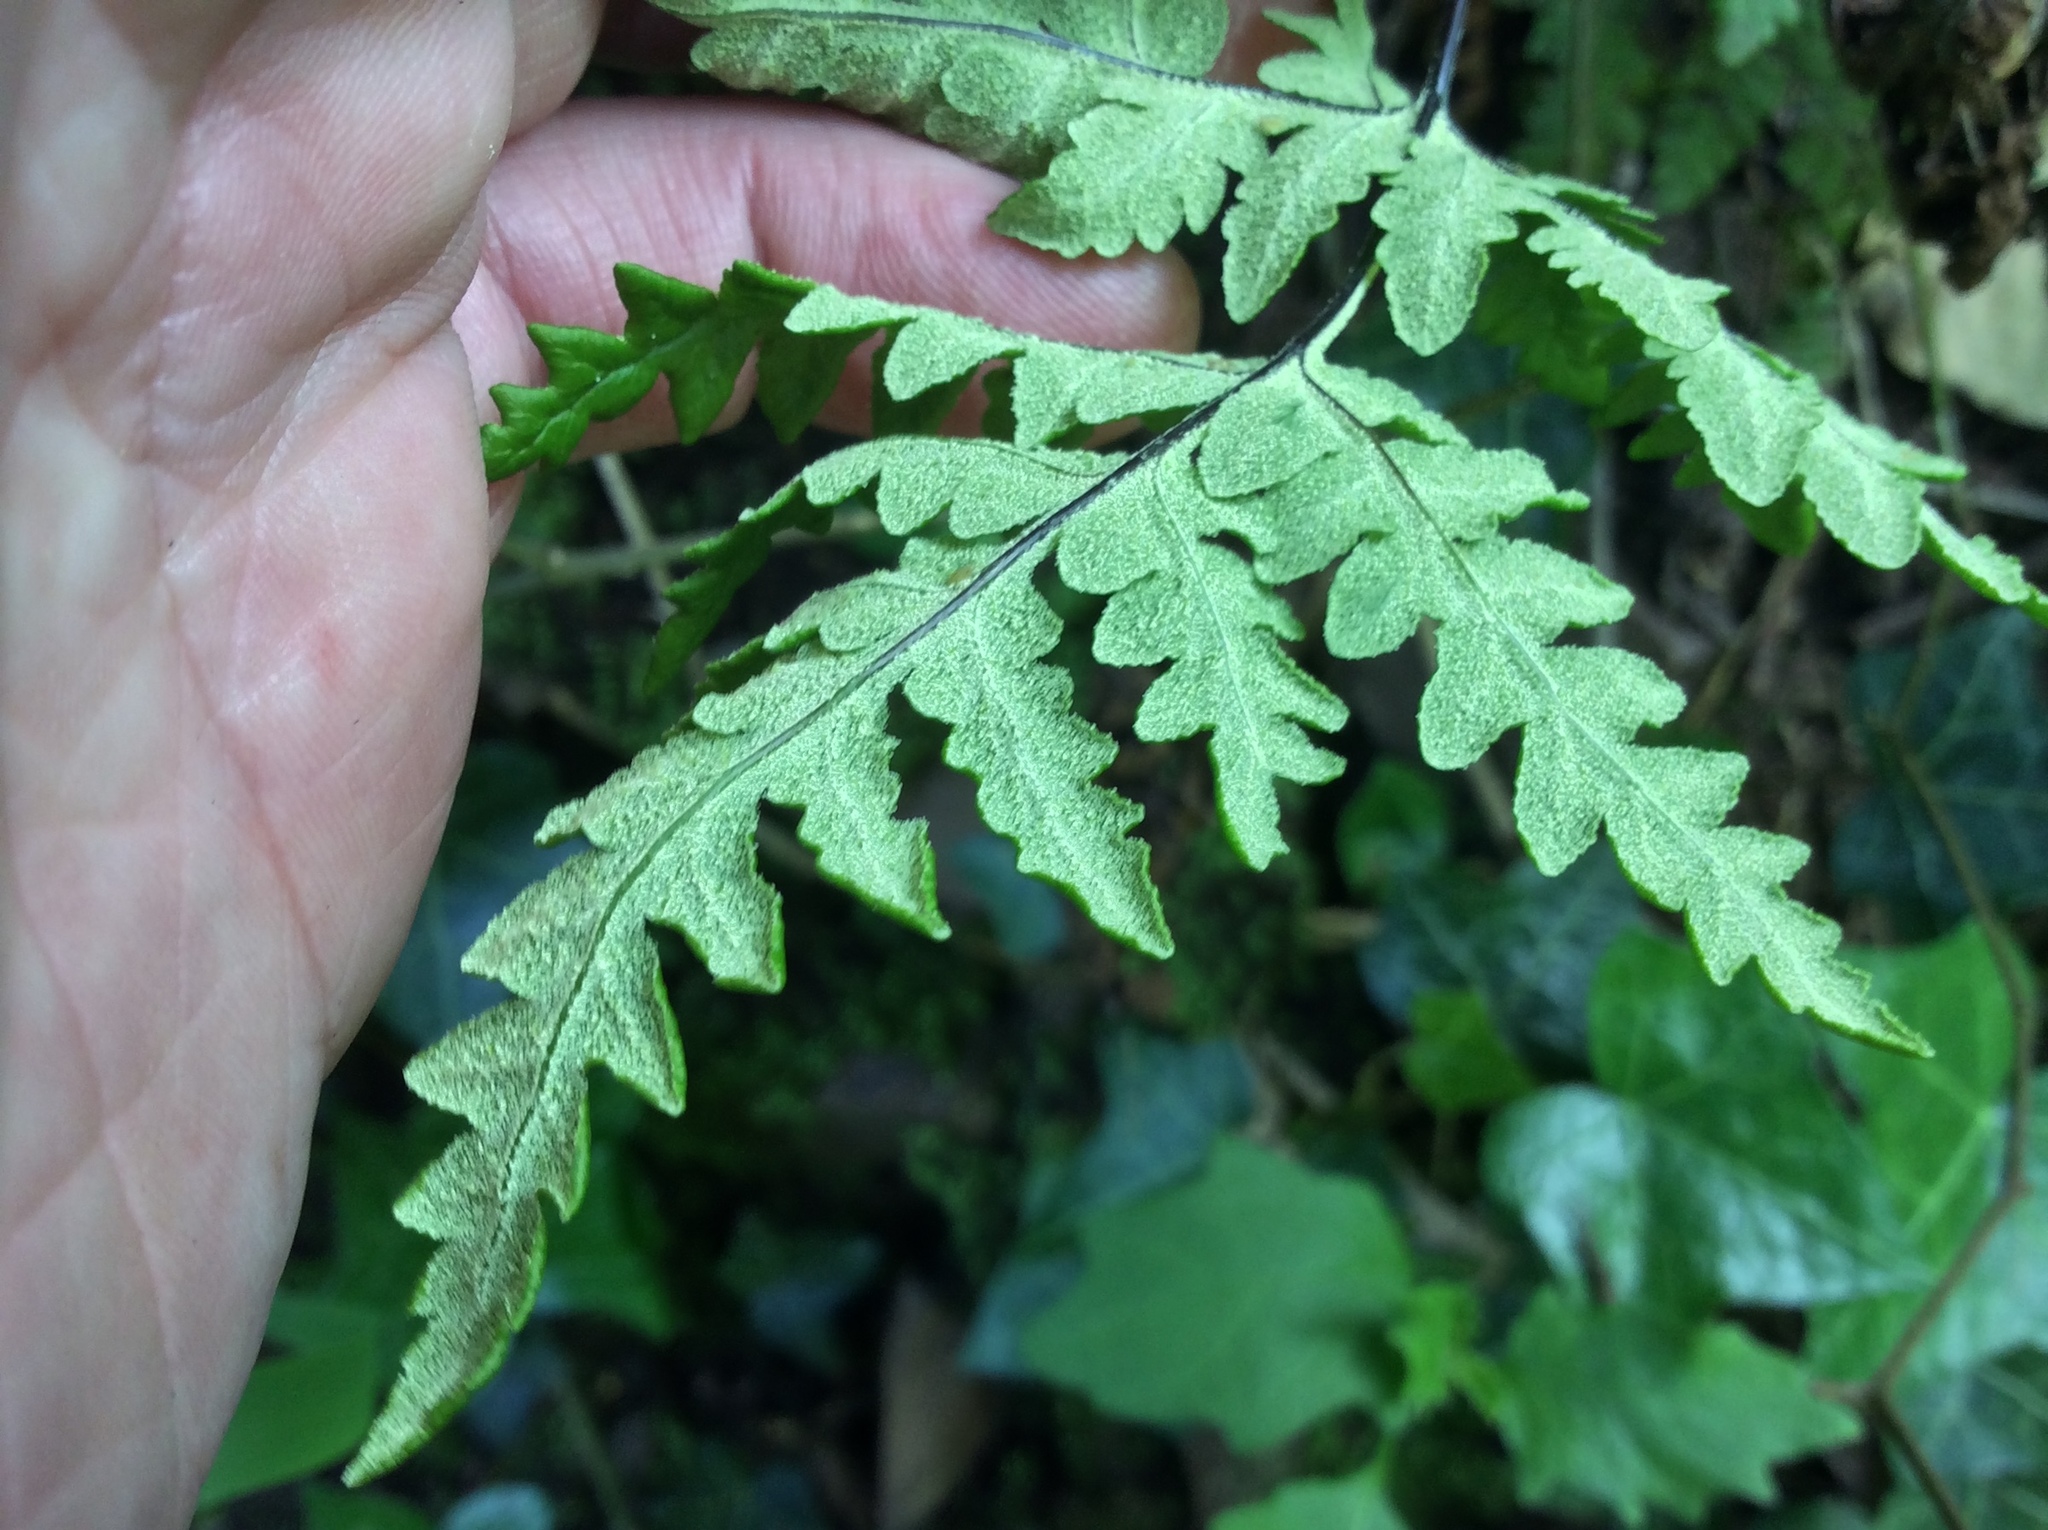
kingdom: Plantae
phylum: Tracheophyta
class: Polypodiopsida
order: Polypodiales
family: Pteridaceae
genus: Pentagramma
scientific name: Pentagramma triangularis
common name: Gold fern
